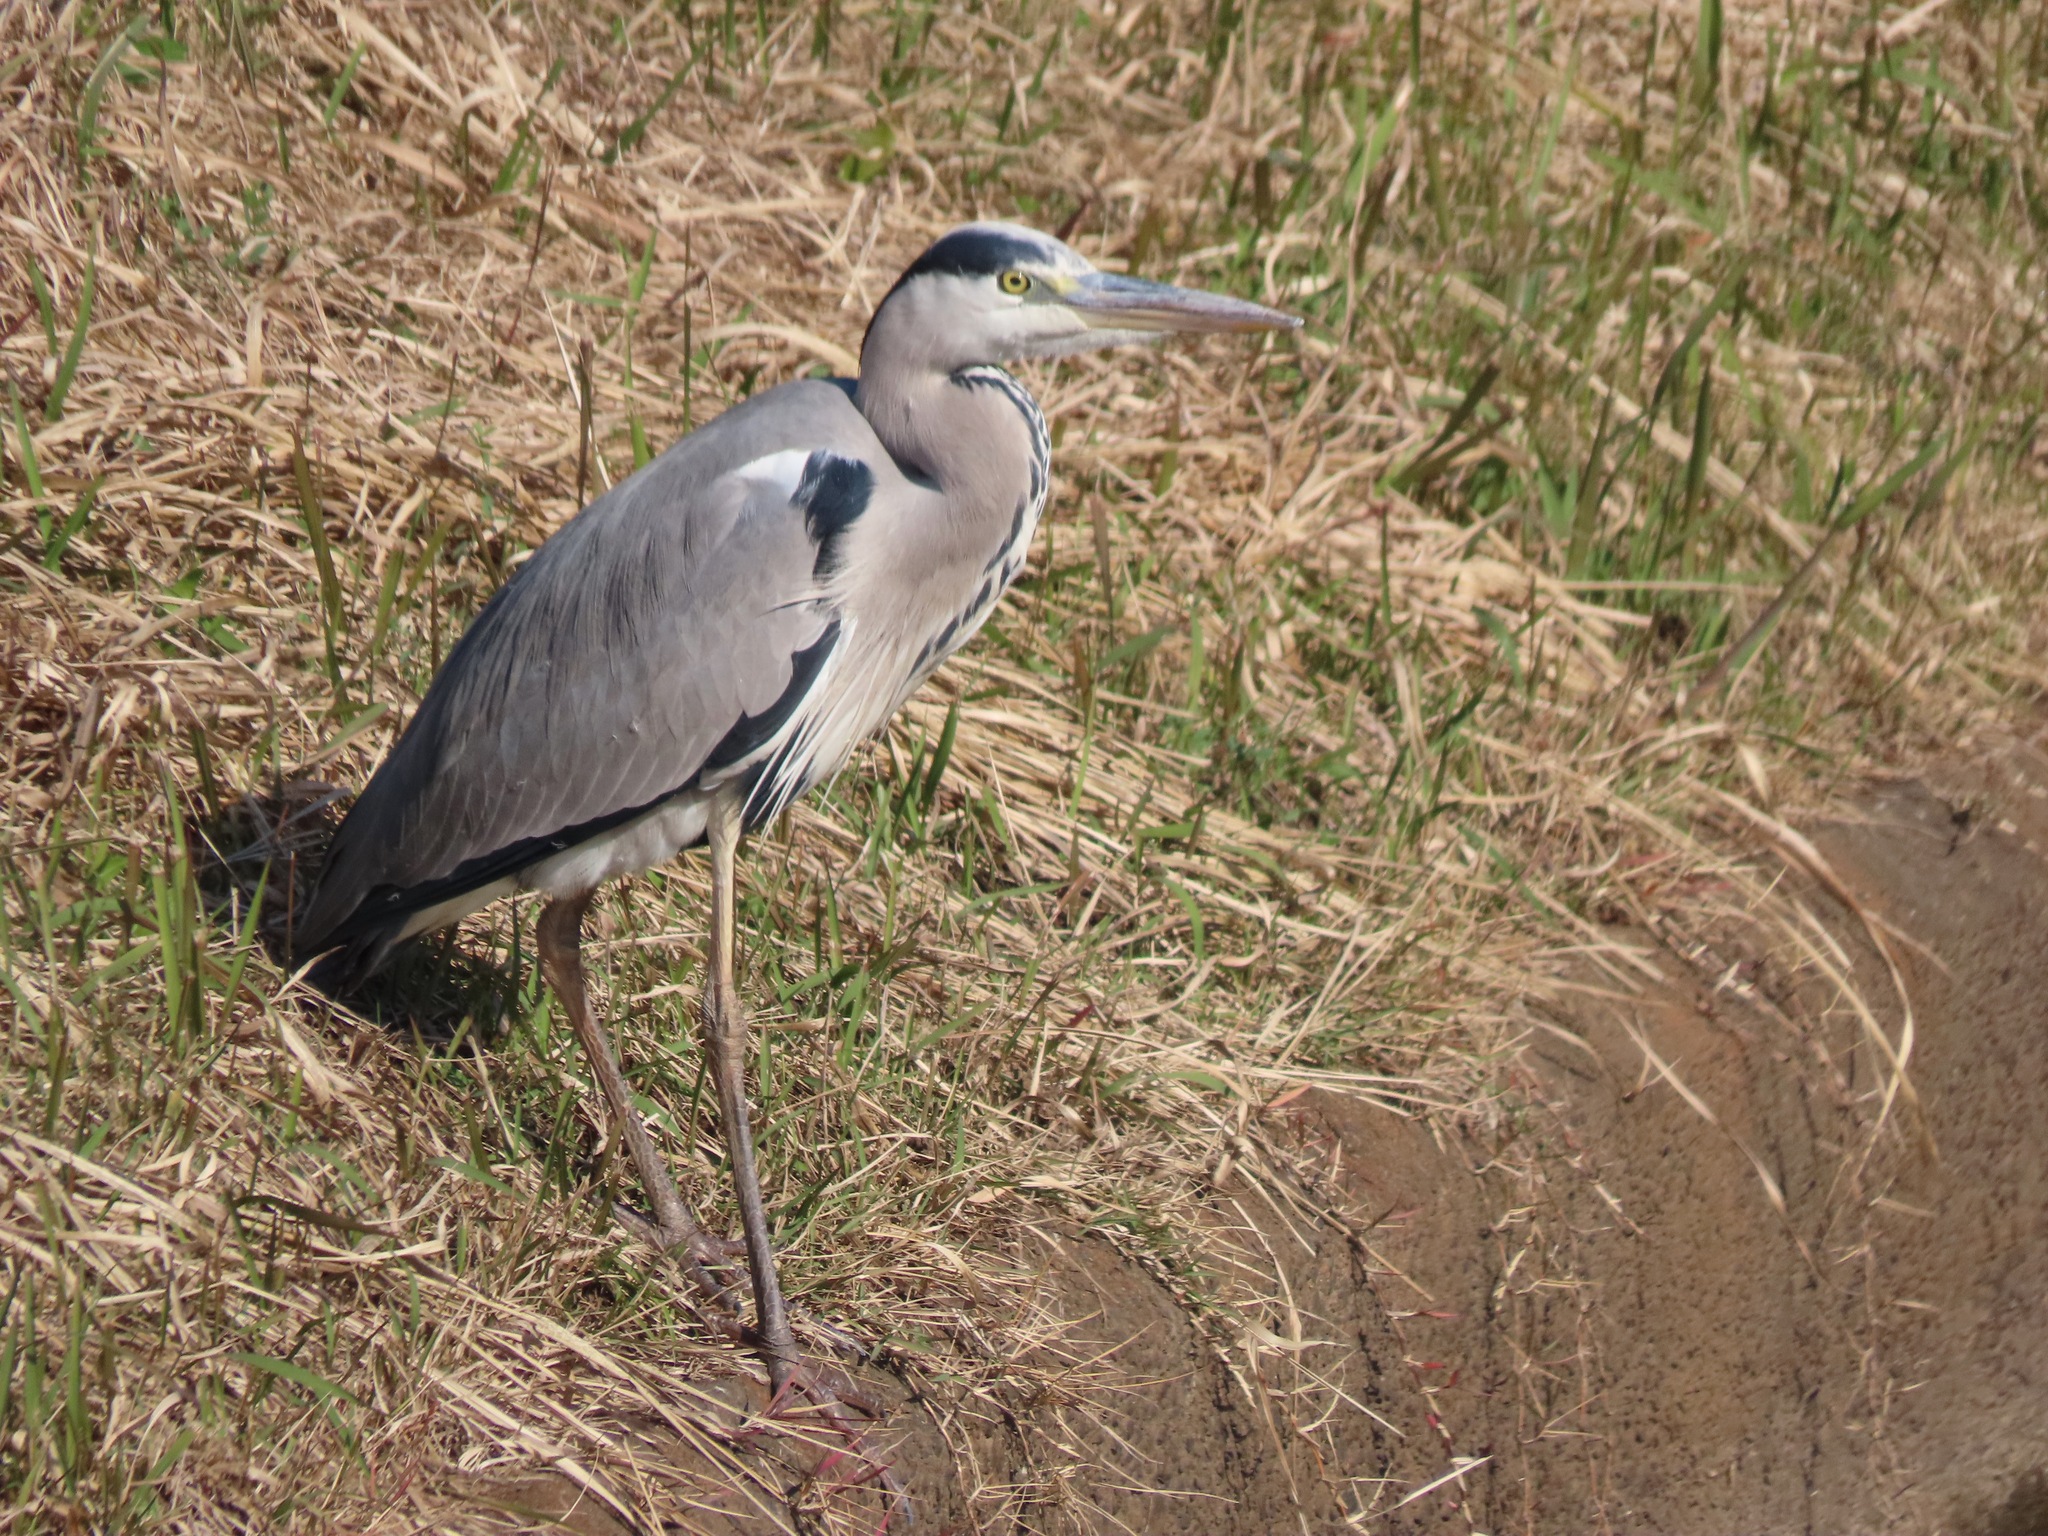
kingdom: Animalia
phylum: Chordata
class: Aves
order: Pelecaniformes
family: Ardeidae
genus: Ardea
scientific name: Ardea cinerea
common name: Grey heron
